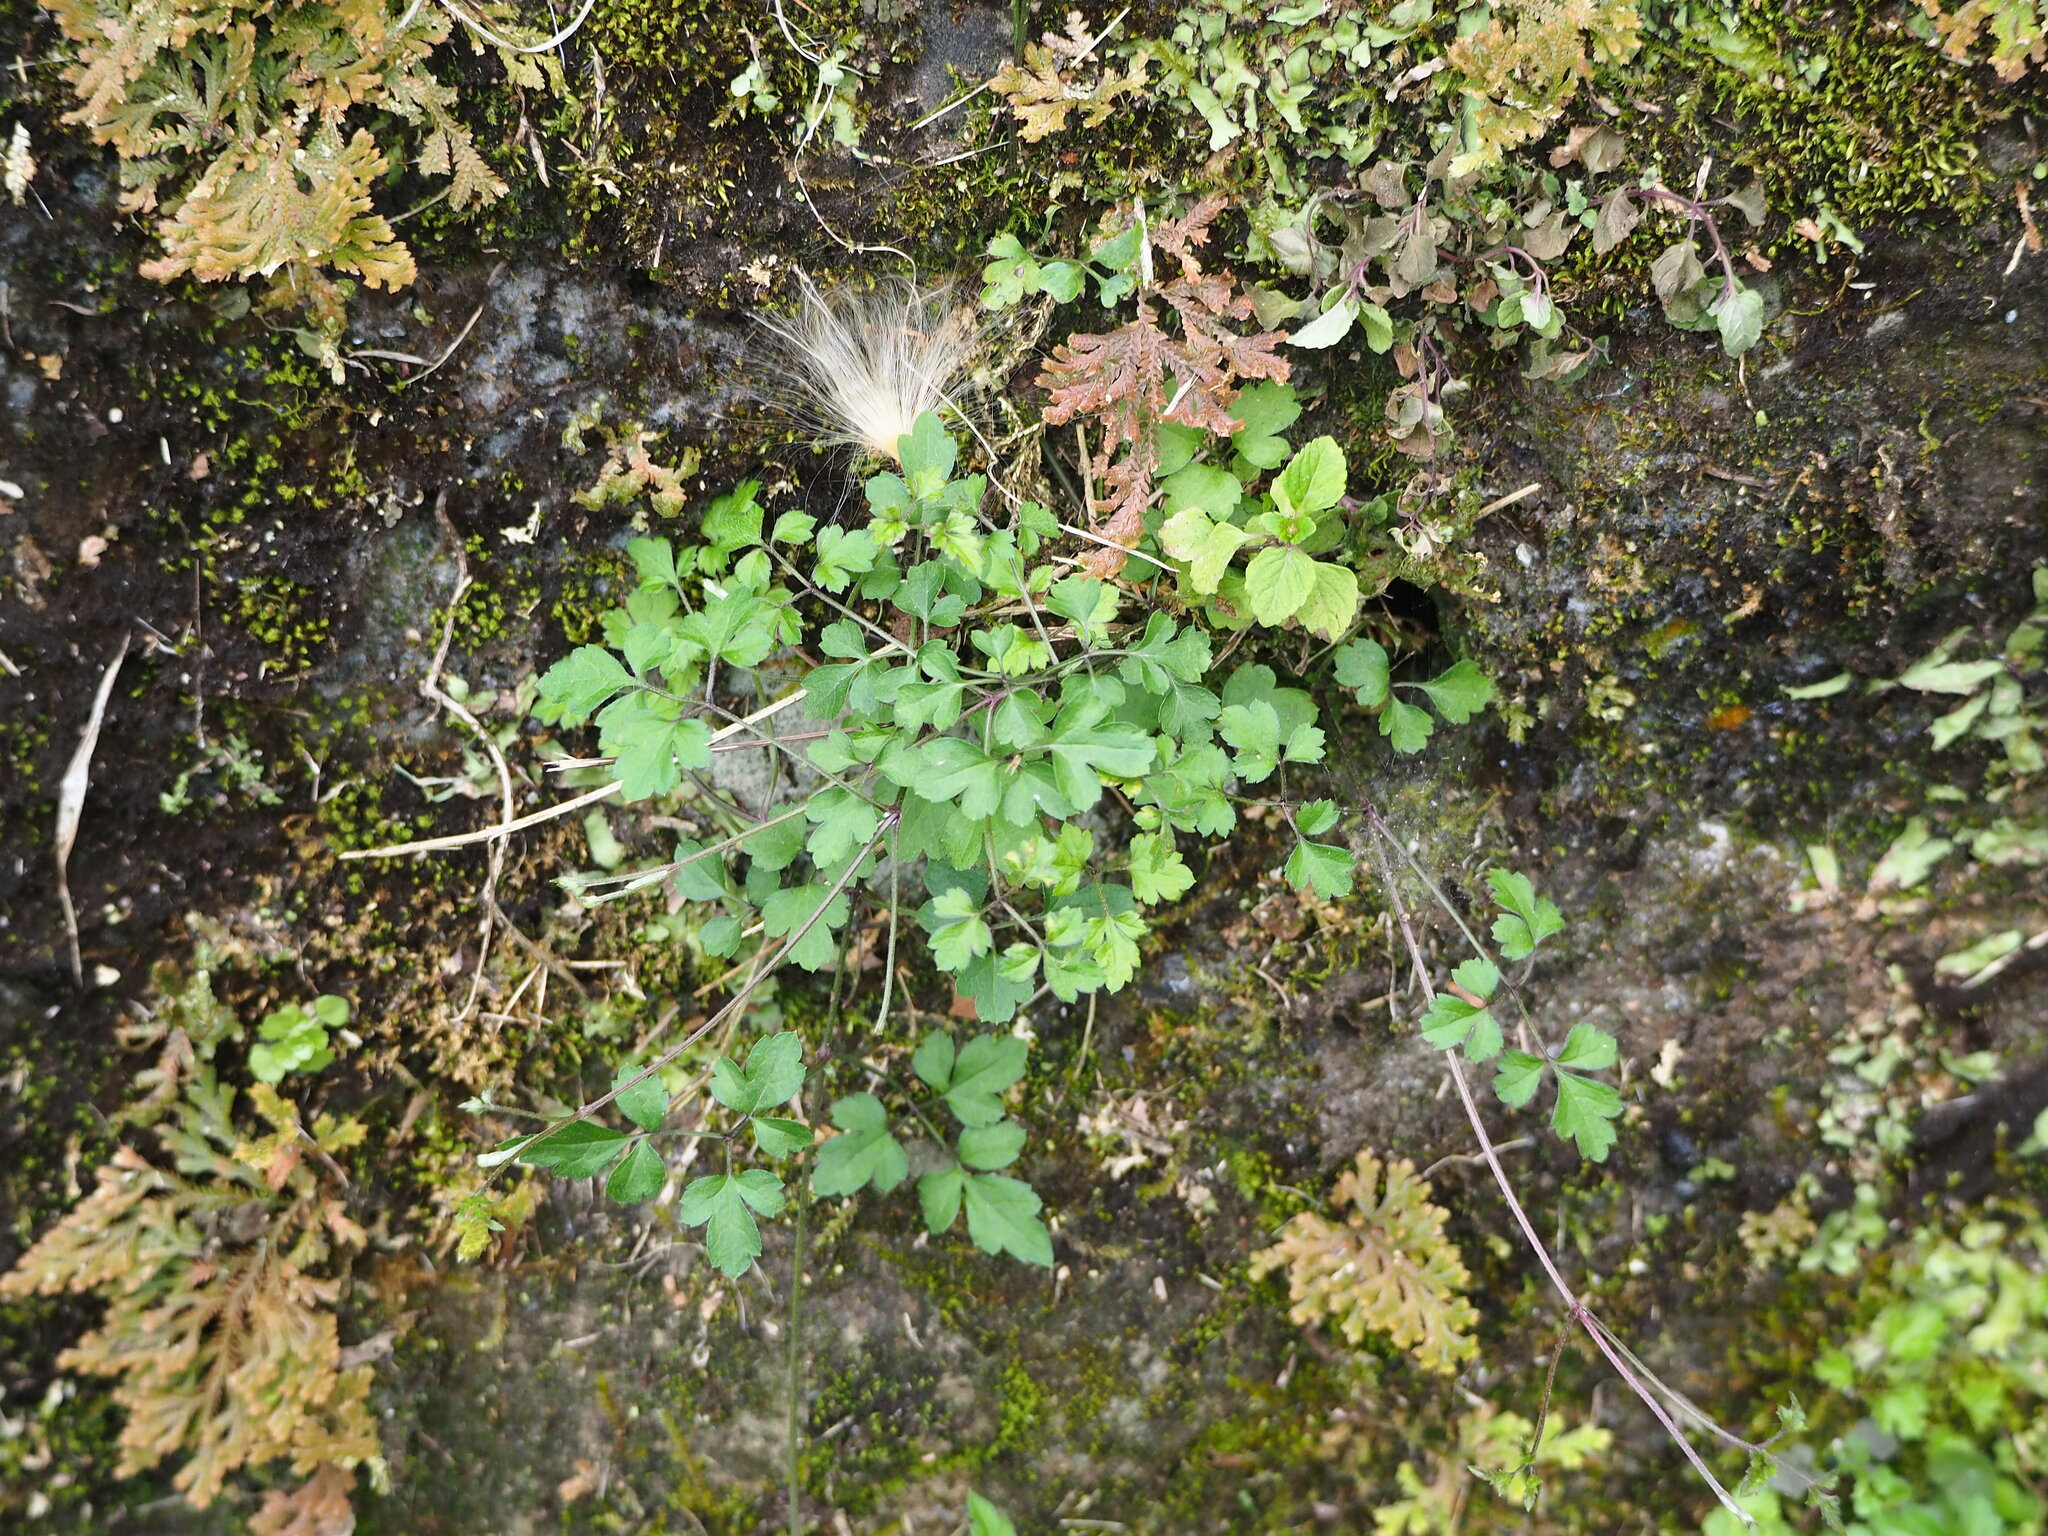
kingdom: Plantae
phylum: Tracheophyta
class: Magnoliopsida
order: Ranunculales
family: Ranunculaceae
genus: Clematis
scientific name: Clematis grata
